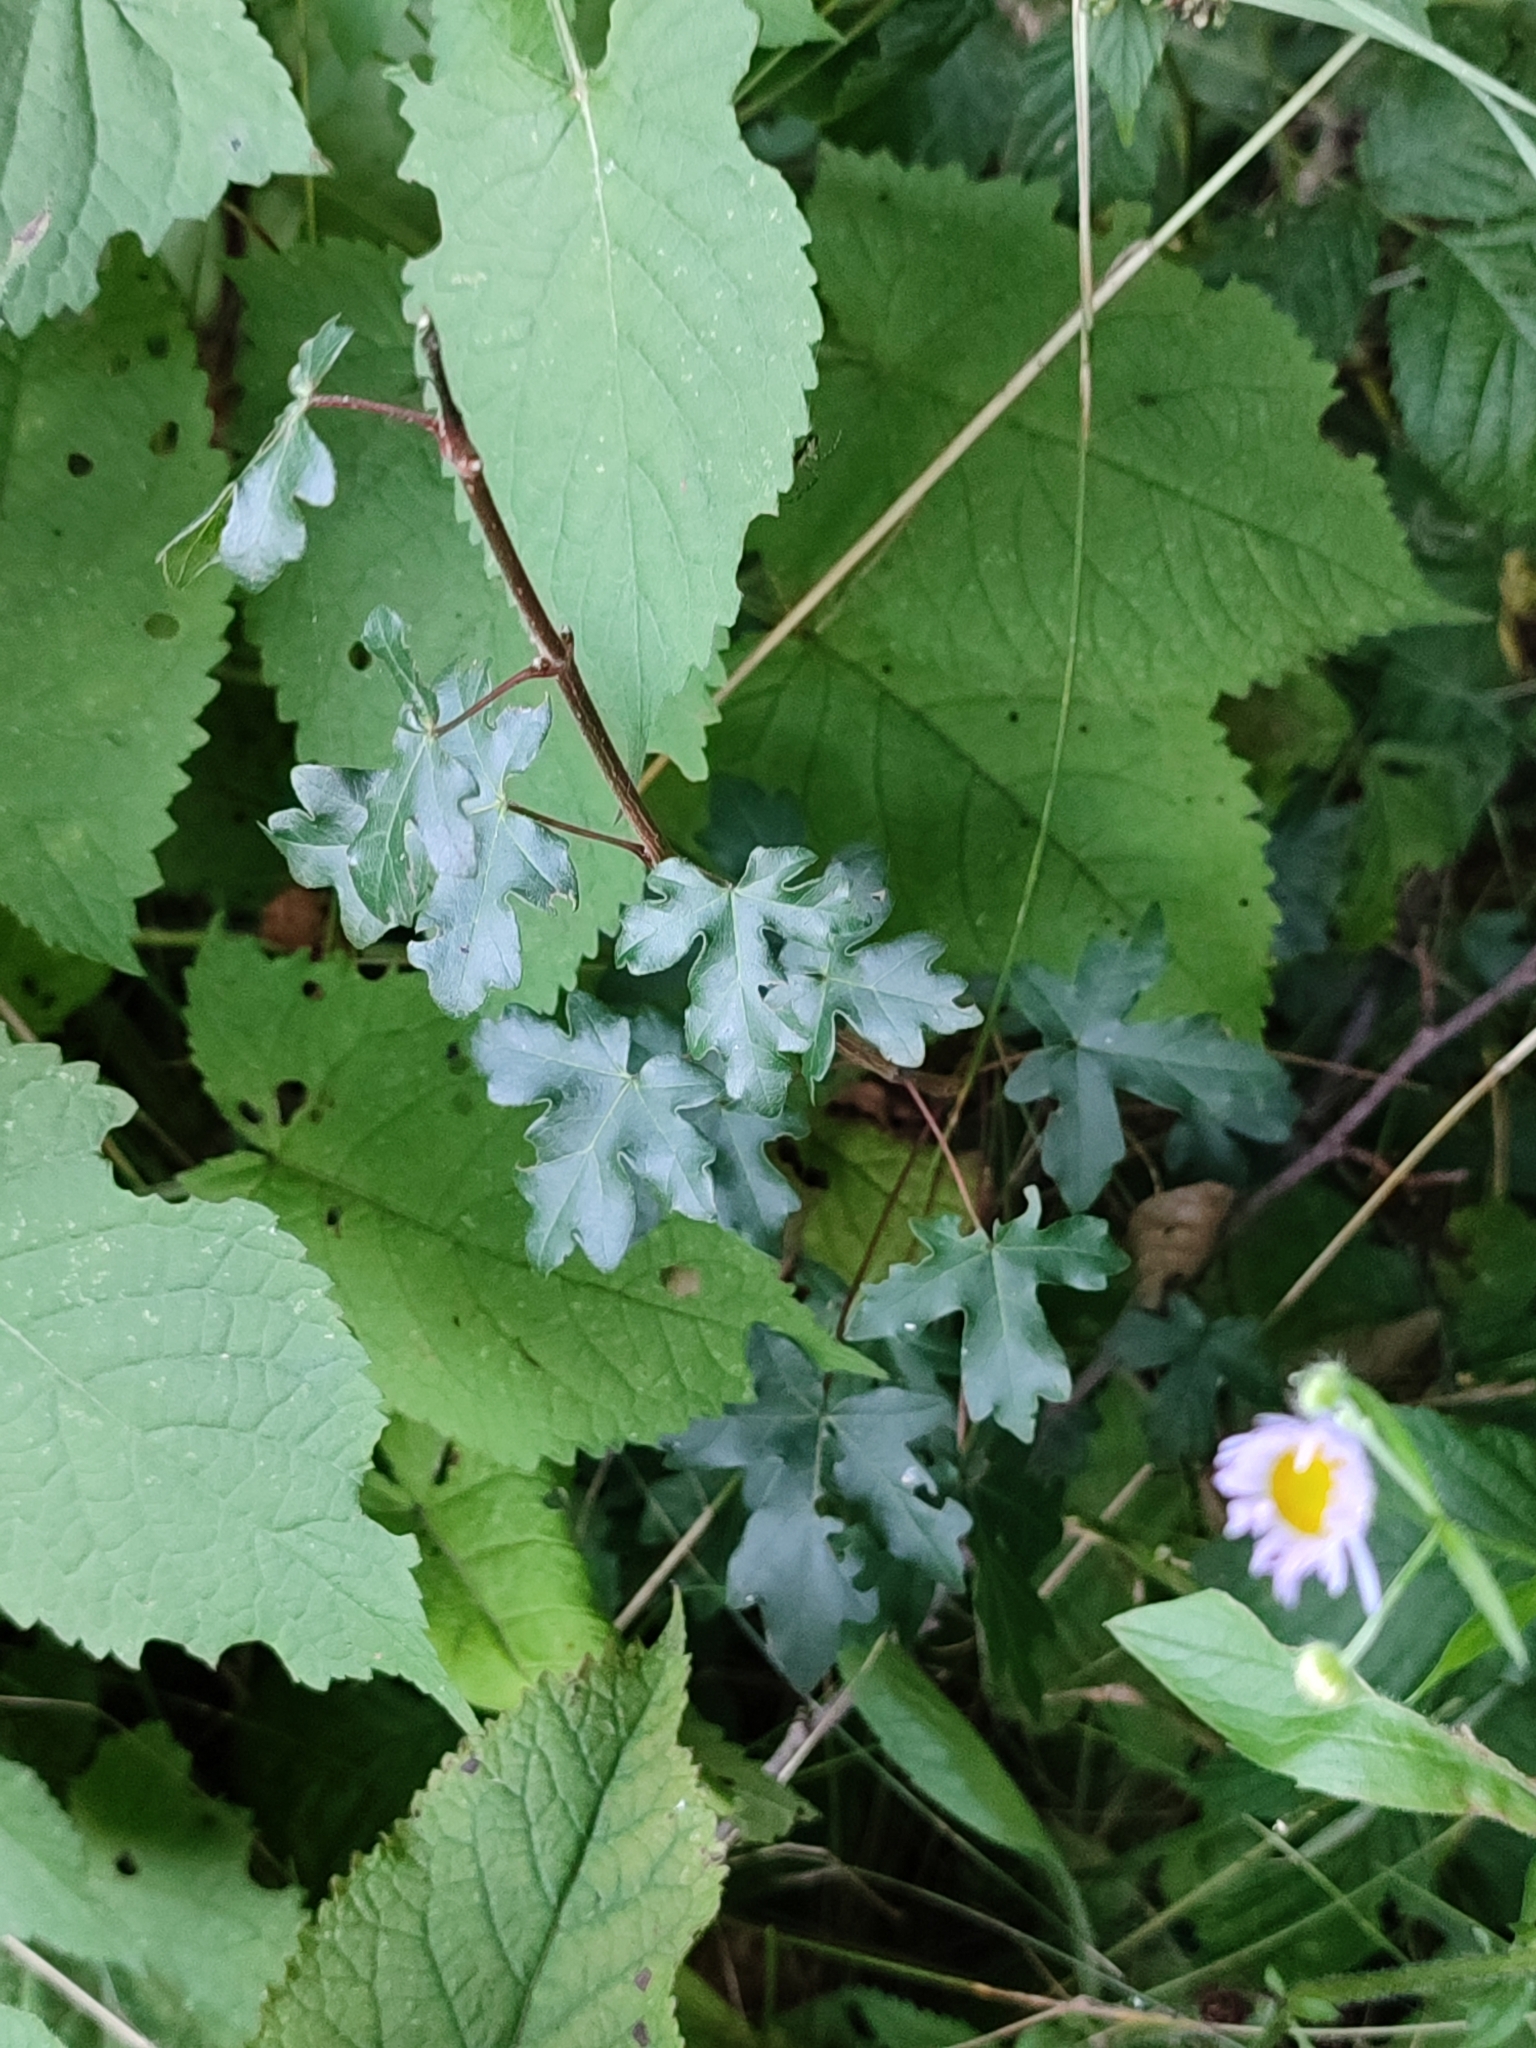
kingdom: Plantae
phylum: Tracheophyta
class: Magnoliopsida
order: Sapindales
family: Sapindaceae
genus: Acer
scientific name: Acer campestre
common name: Field maple
